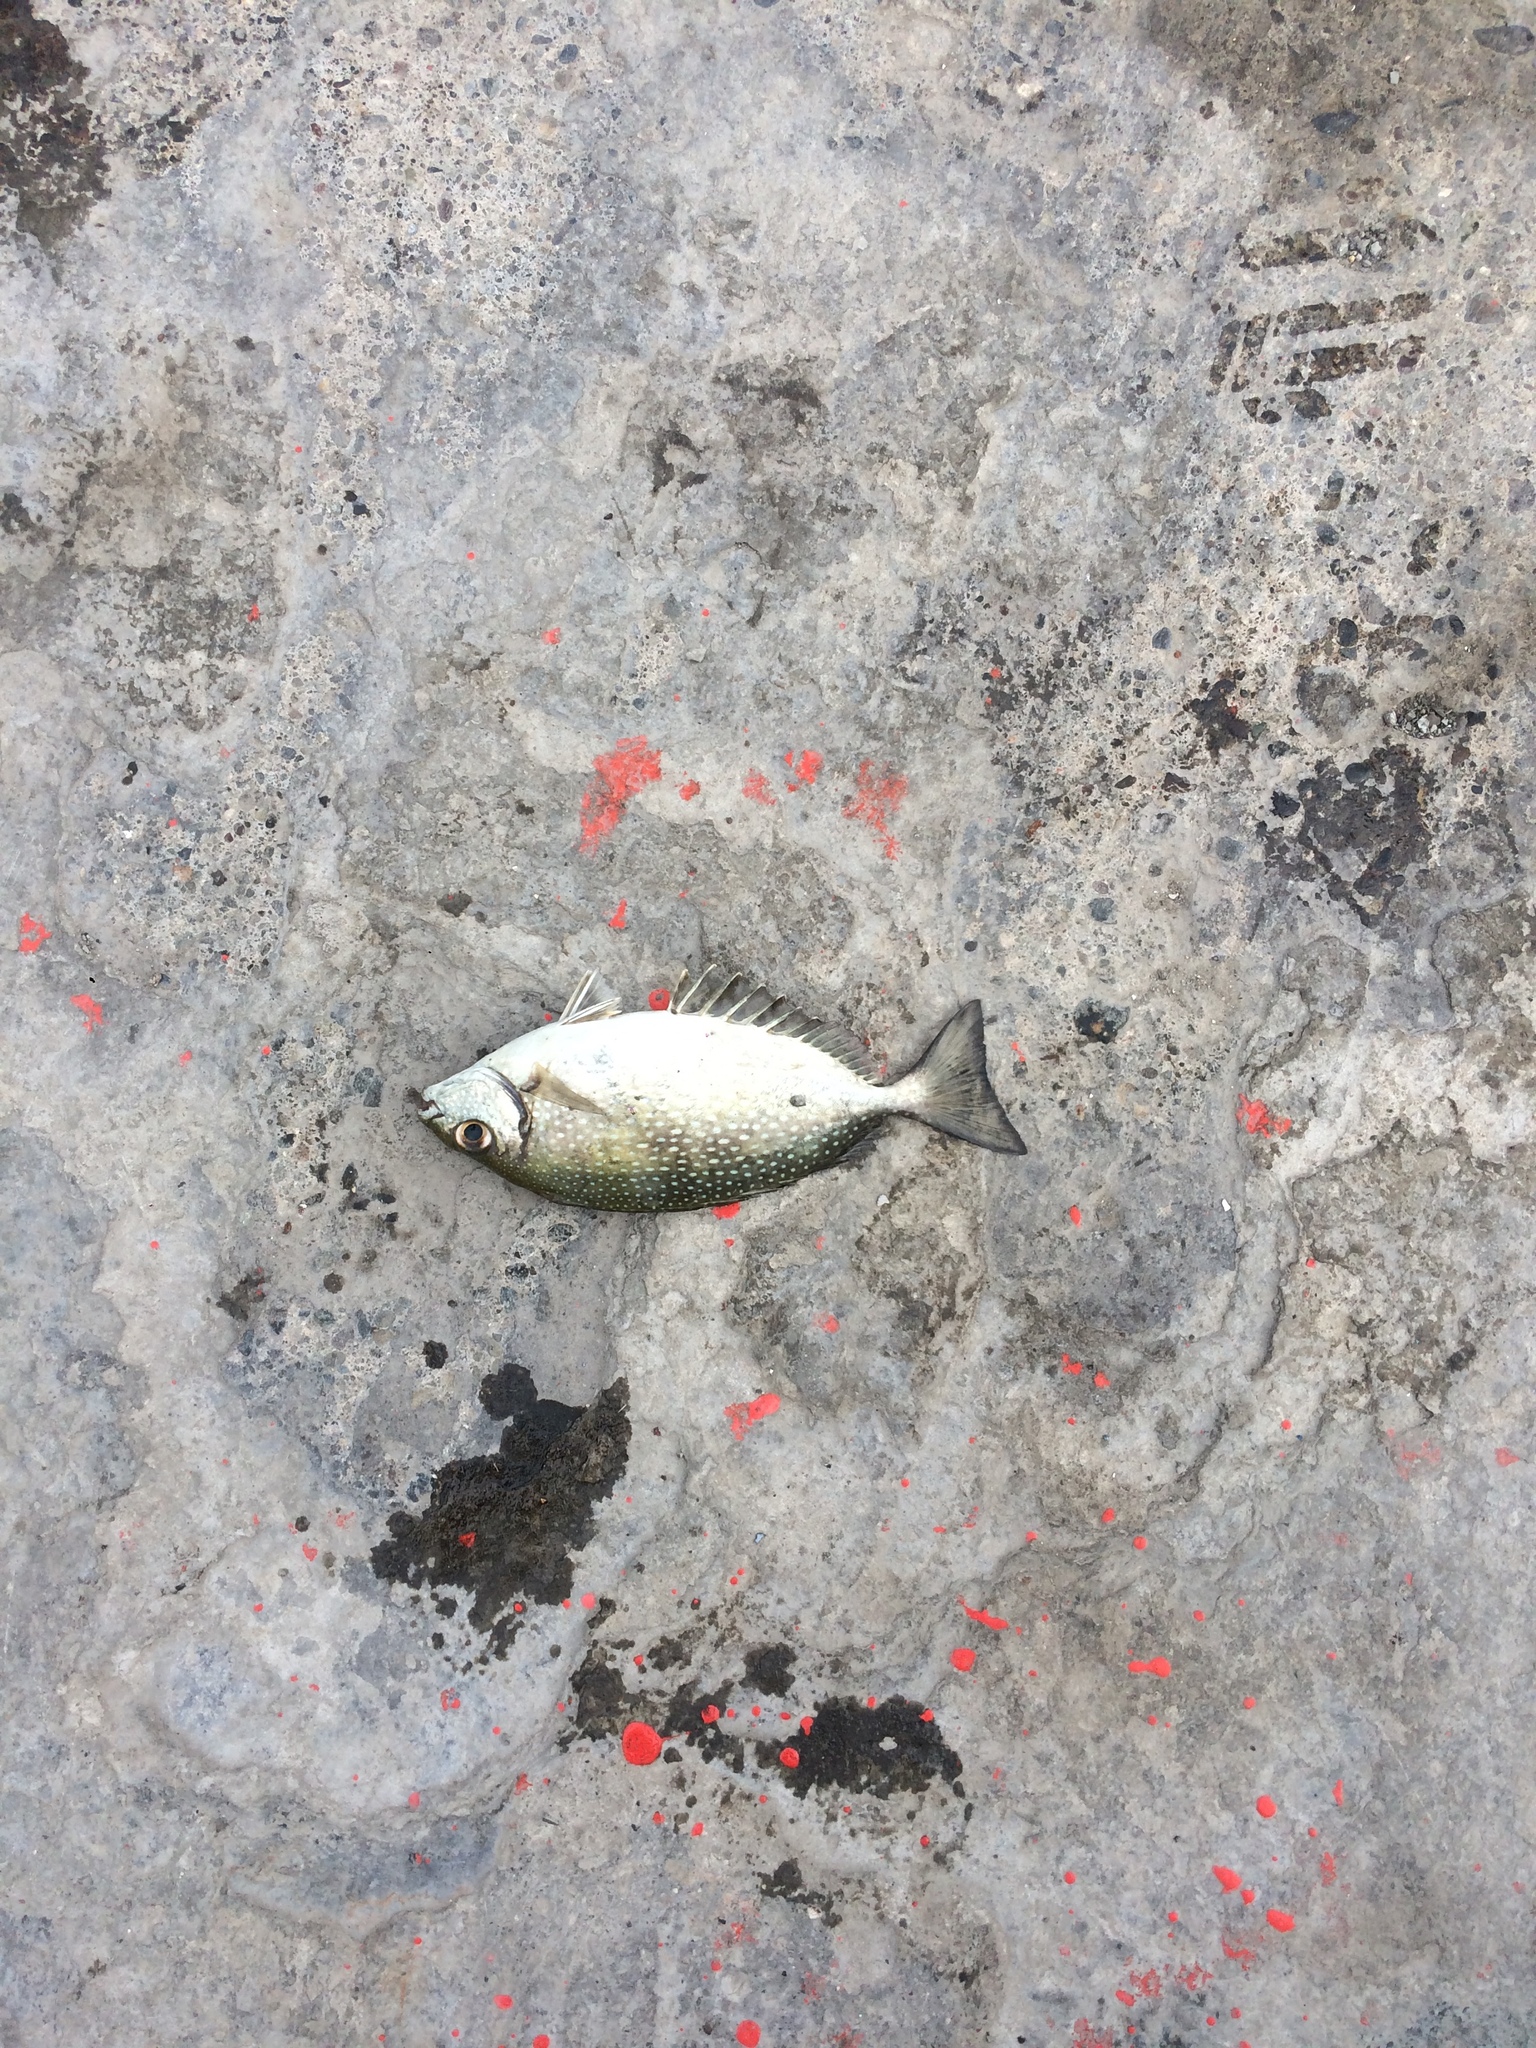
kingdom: Animalia
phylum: Chordata
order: Perciformes
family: Siganidae
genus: Siganus
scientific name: Siganus fuscescens
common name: Dusky rabbitfish
